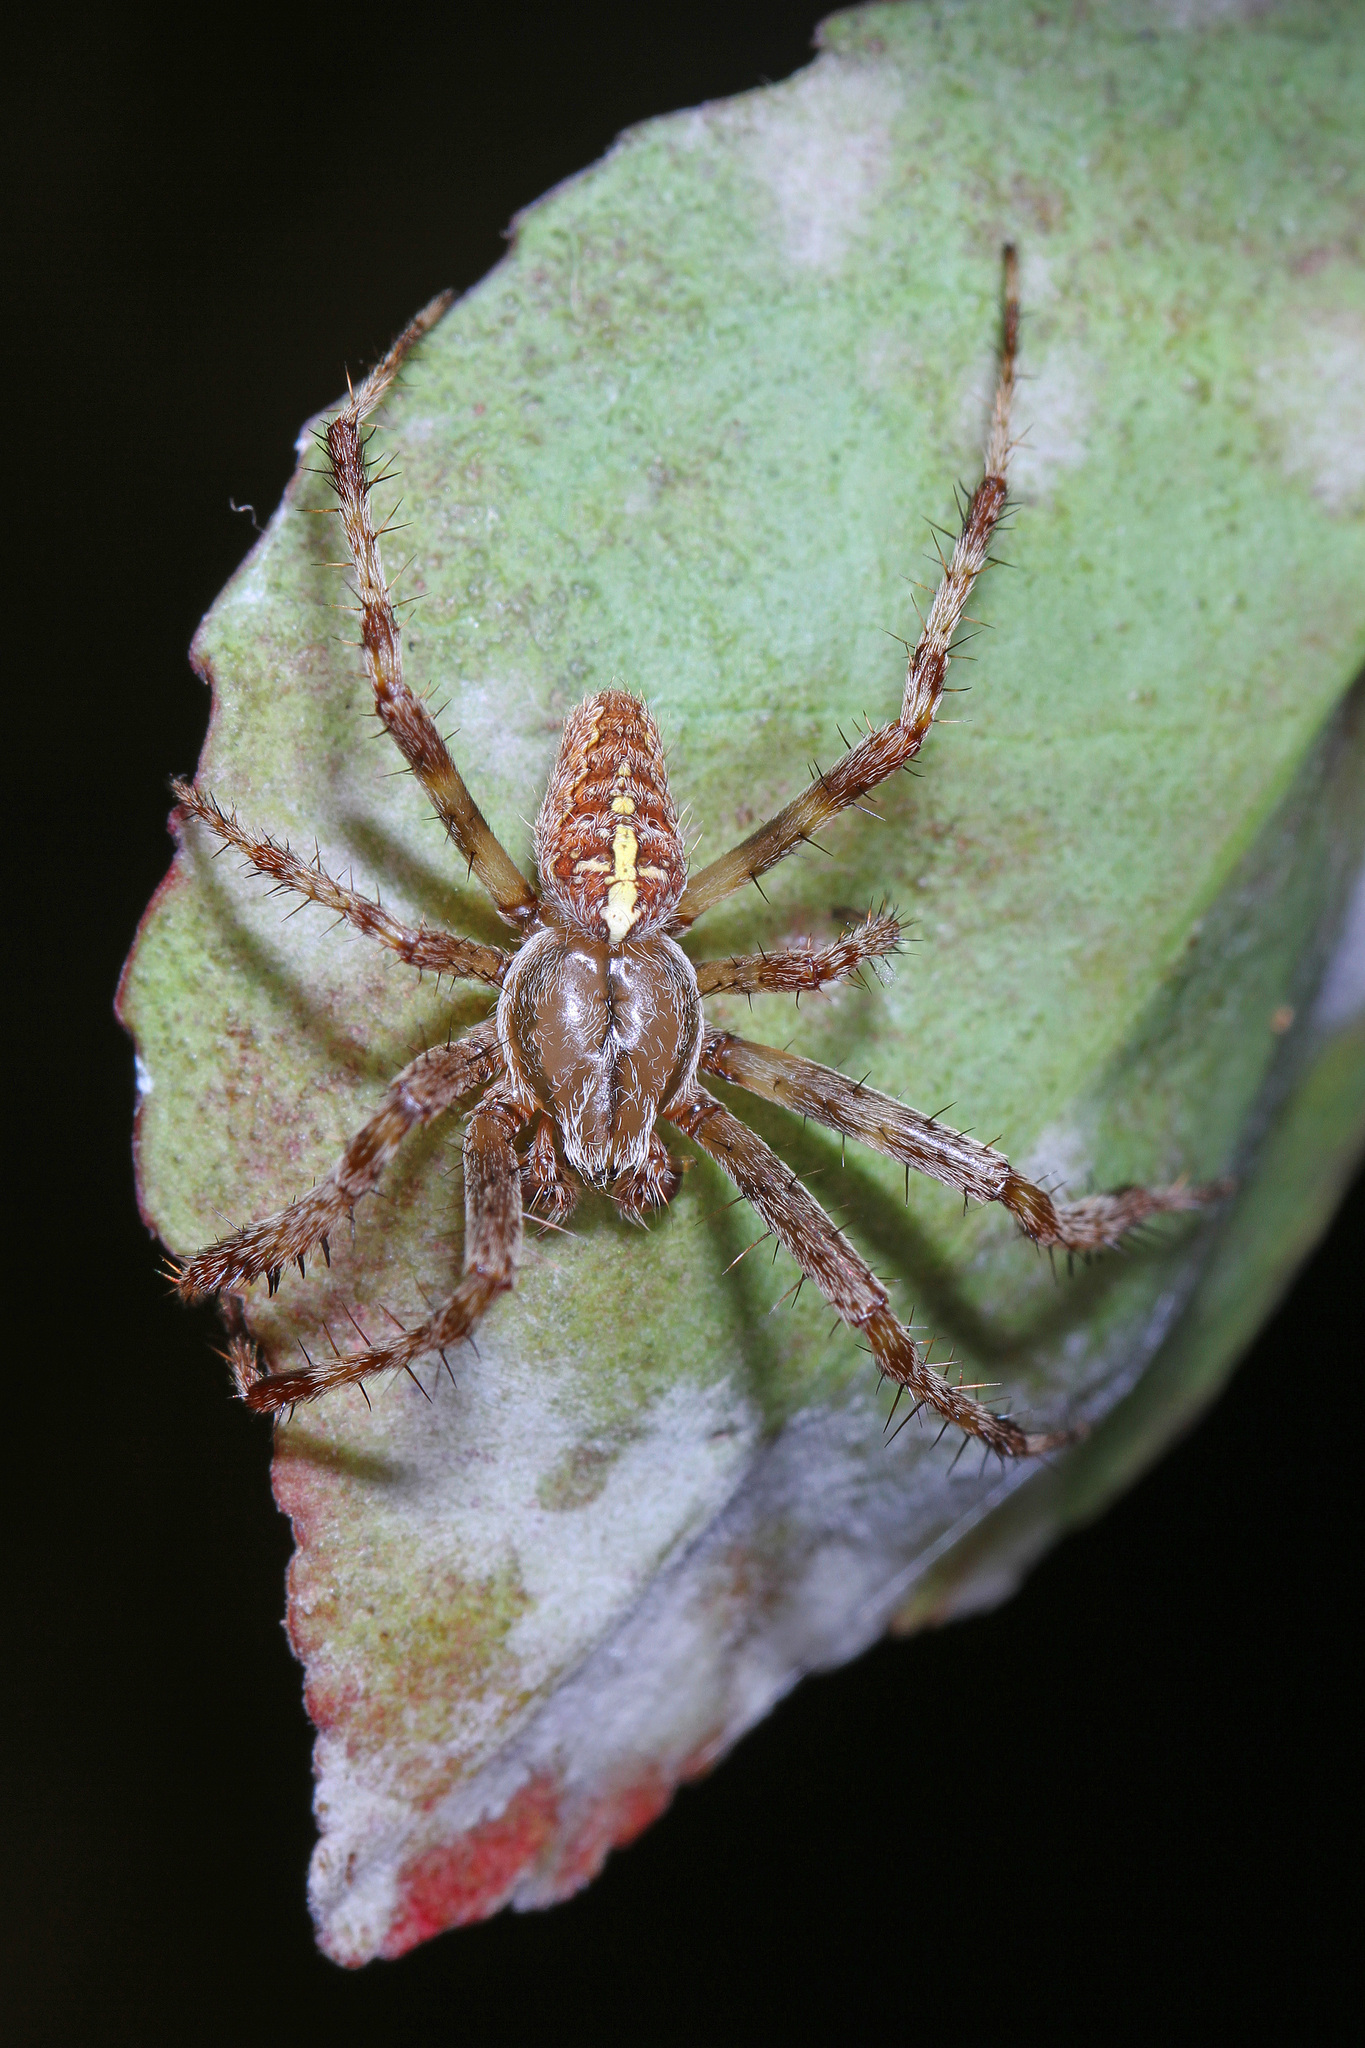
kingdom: Animalia
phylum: Arthropoda
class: Arachnida
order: Araneae
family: Araneidae
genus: Araneus
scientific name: Araneus diadematus
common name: Cross orbweaver
